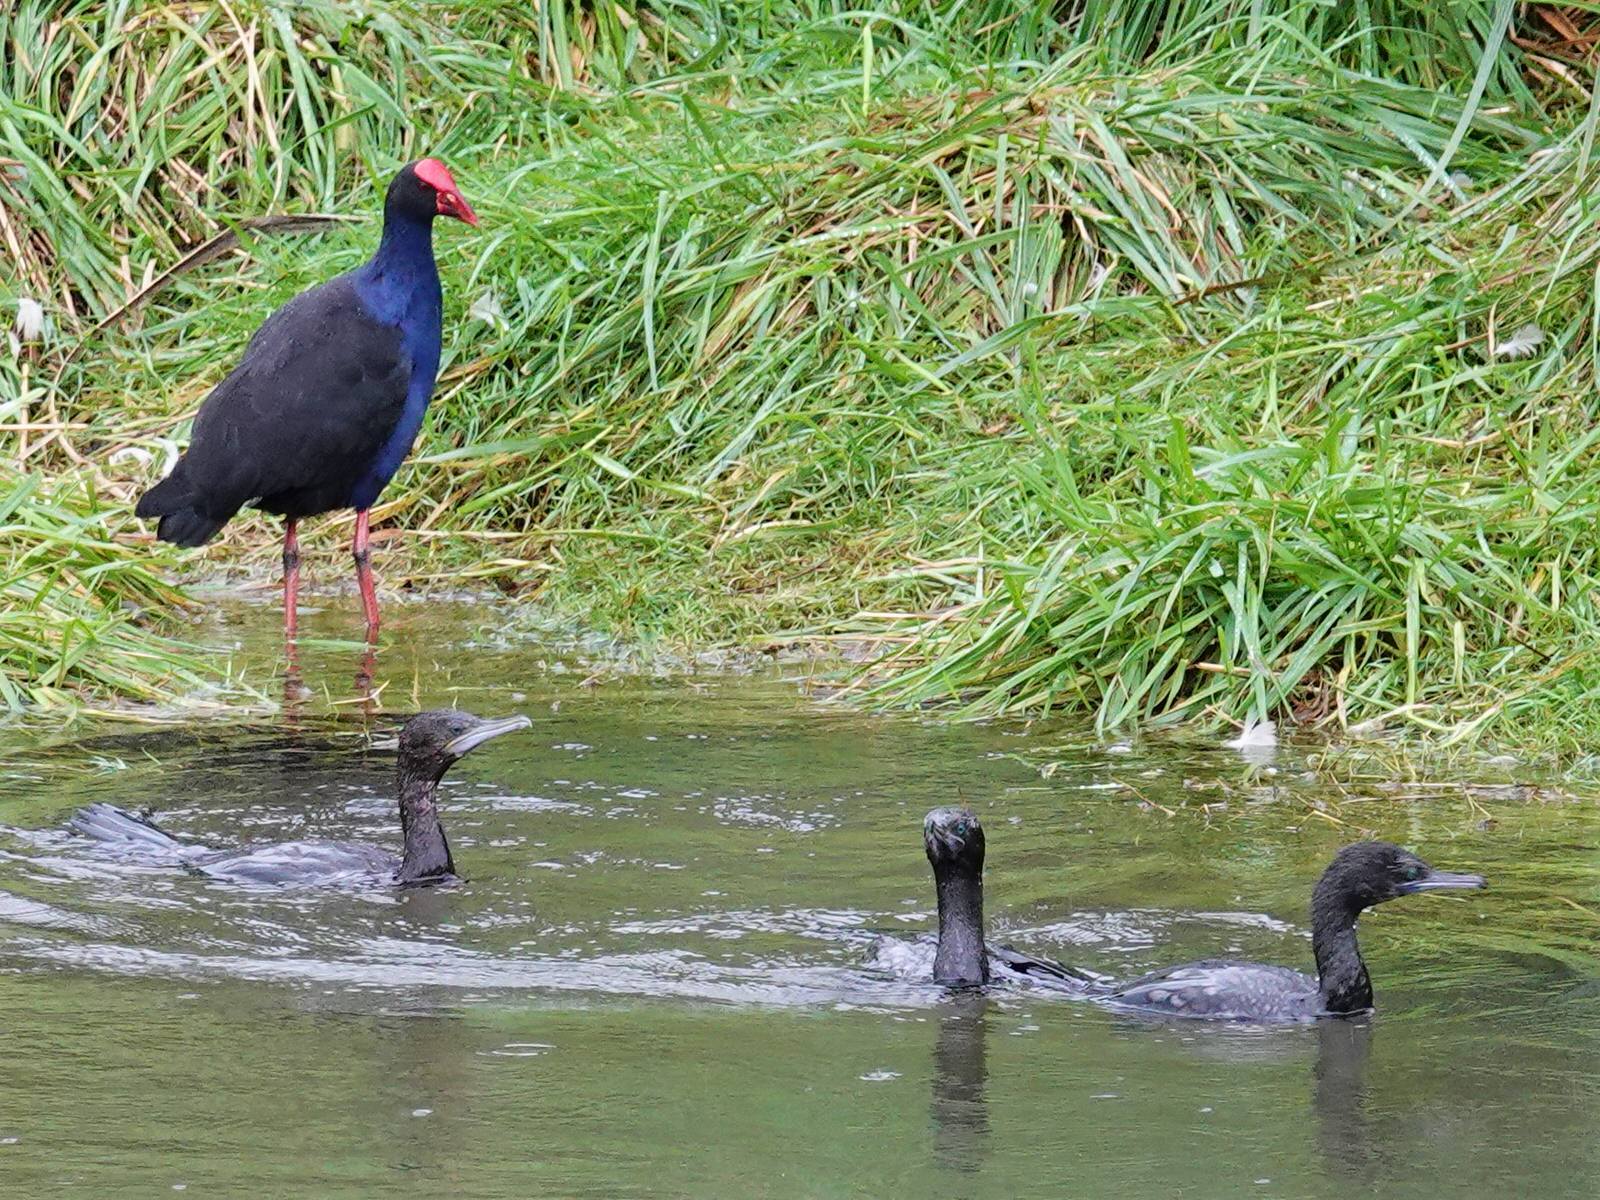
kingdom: Animalia
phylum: Chordata
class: Aves
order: Suliformes
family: Phalacrocoracidae
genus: Phalacrocorax
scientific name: Phalacrocorax sulcirostris
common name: Little black cormorant
